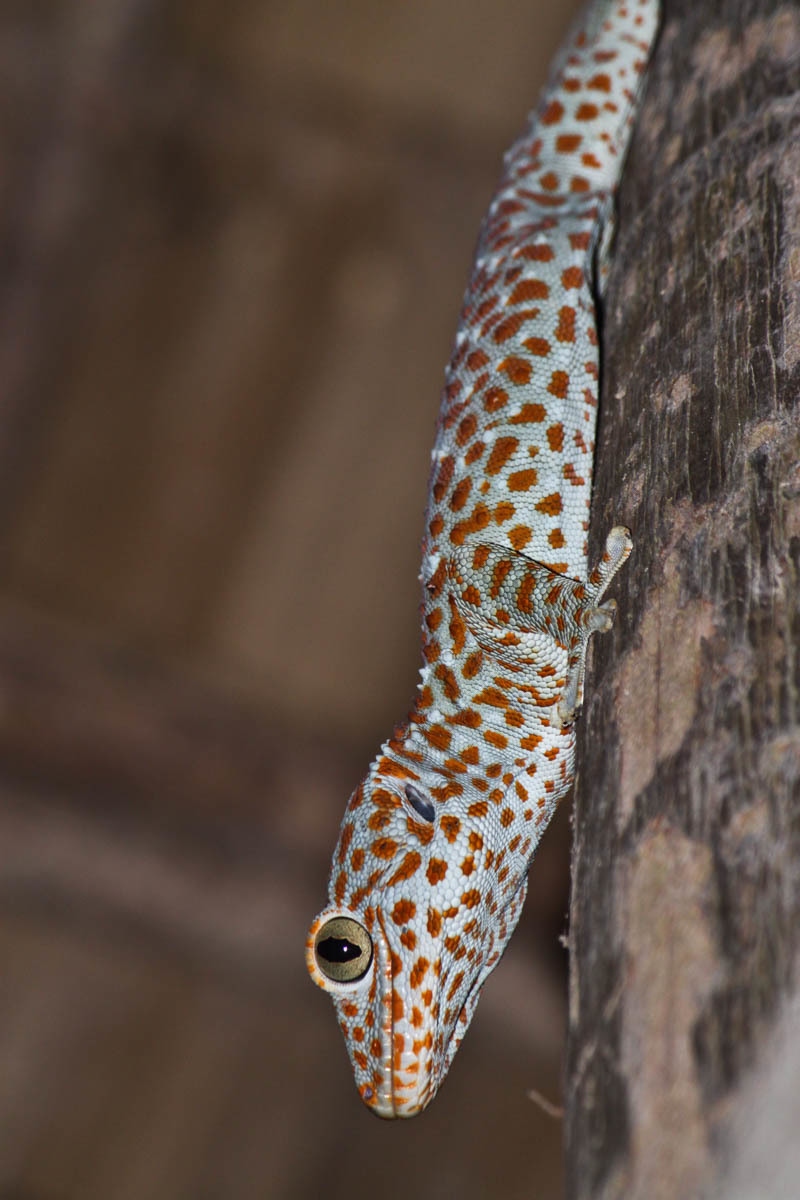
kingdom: Animalia
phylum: Chordata
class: Squamata
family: Gekkonidae
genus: Gekko
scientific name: Gekko gecko
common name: Tokay gecko
